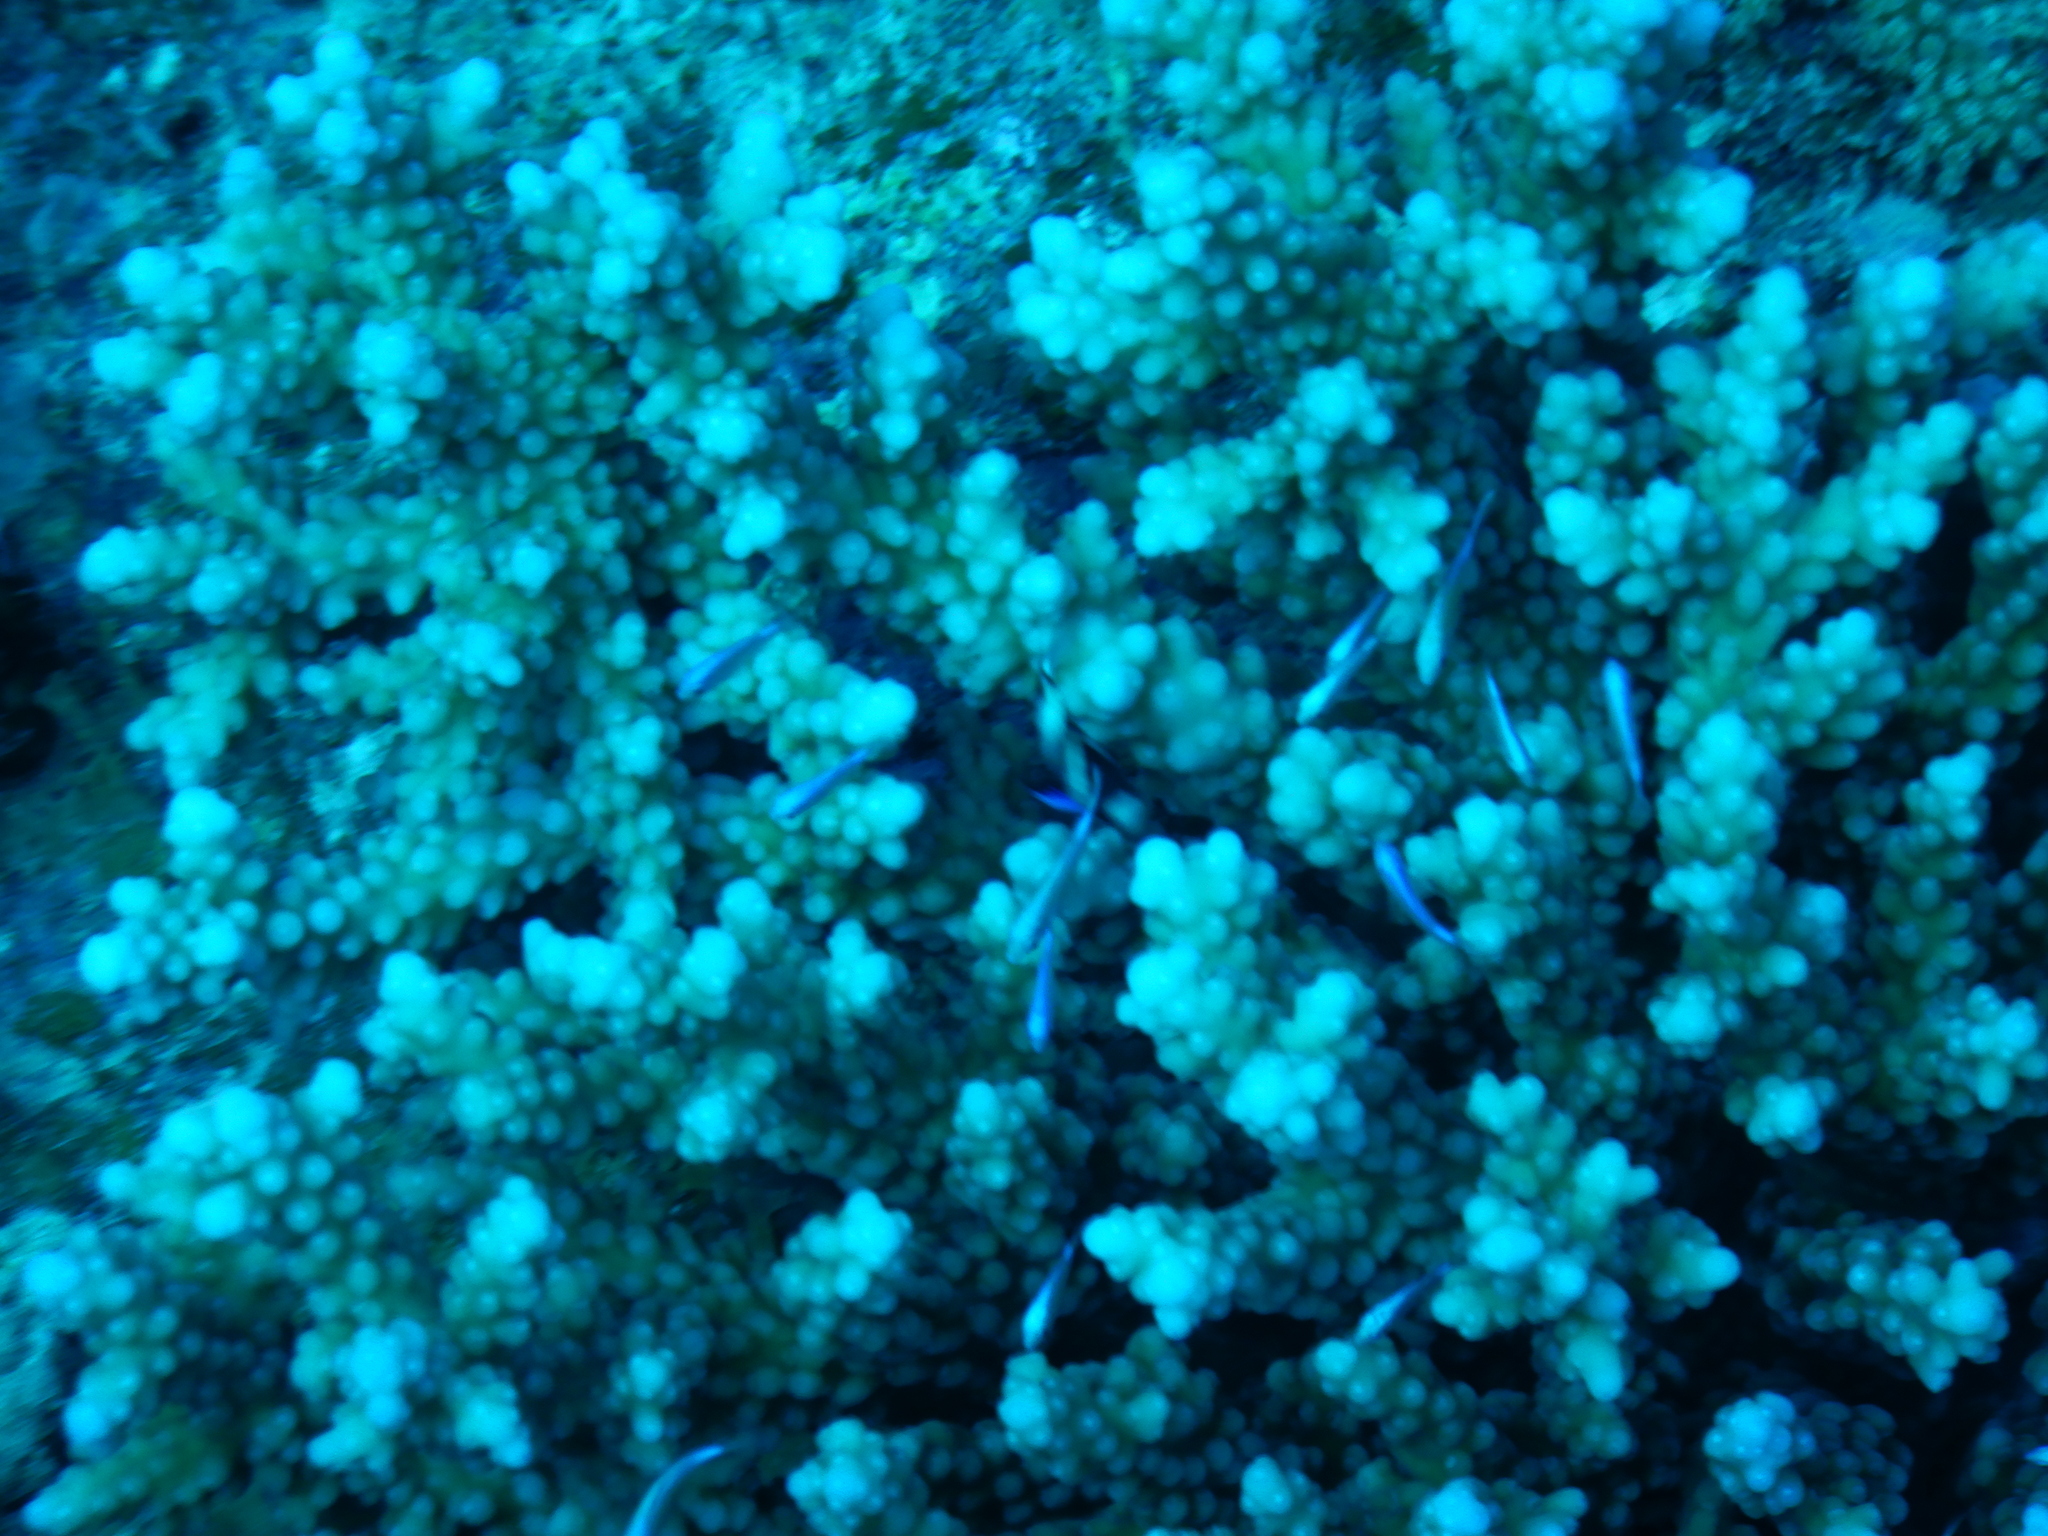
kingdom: Animalia
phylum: Cnidaria
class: Anthozoa
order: Scleractinia
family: Acroporidae
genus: Acropora
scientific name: Acropora hemprichii
